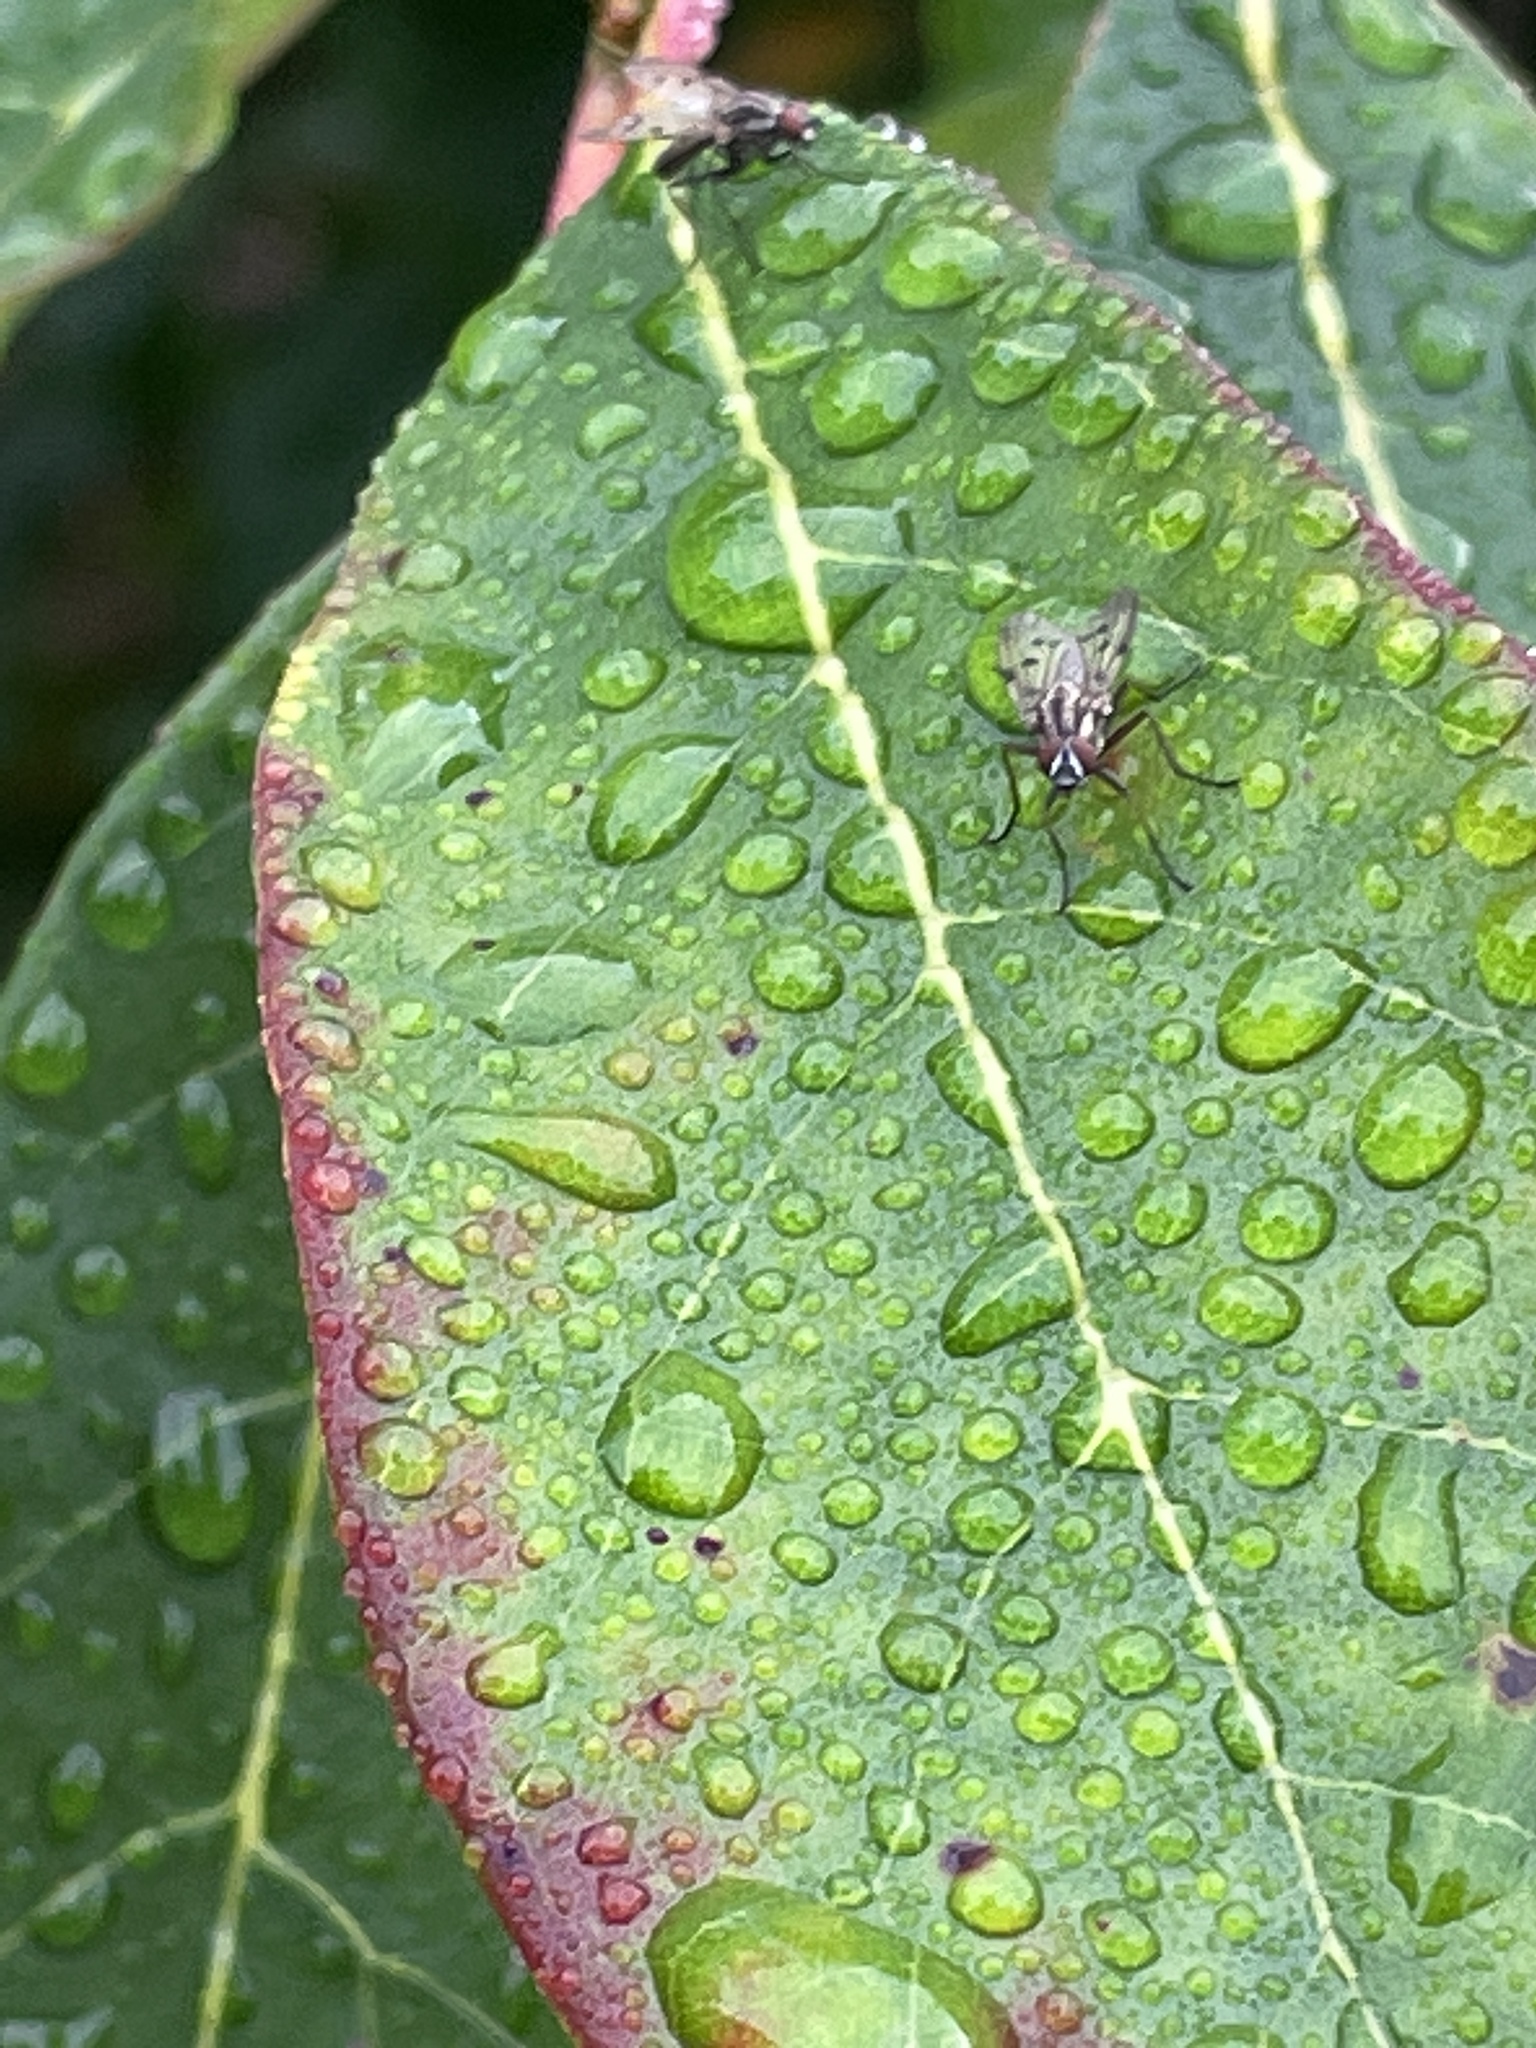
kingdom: Animalia
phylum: Arthropoda
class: Insecta
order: Diptera
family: Anthomyiidae
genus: Anthomyia
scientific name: Anthomyia punctipennis
